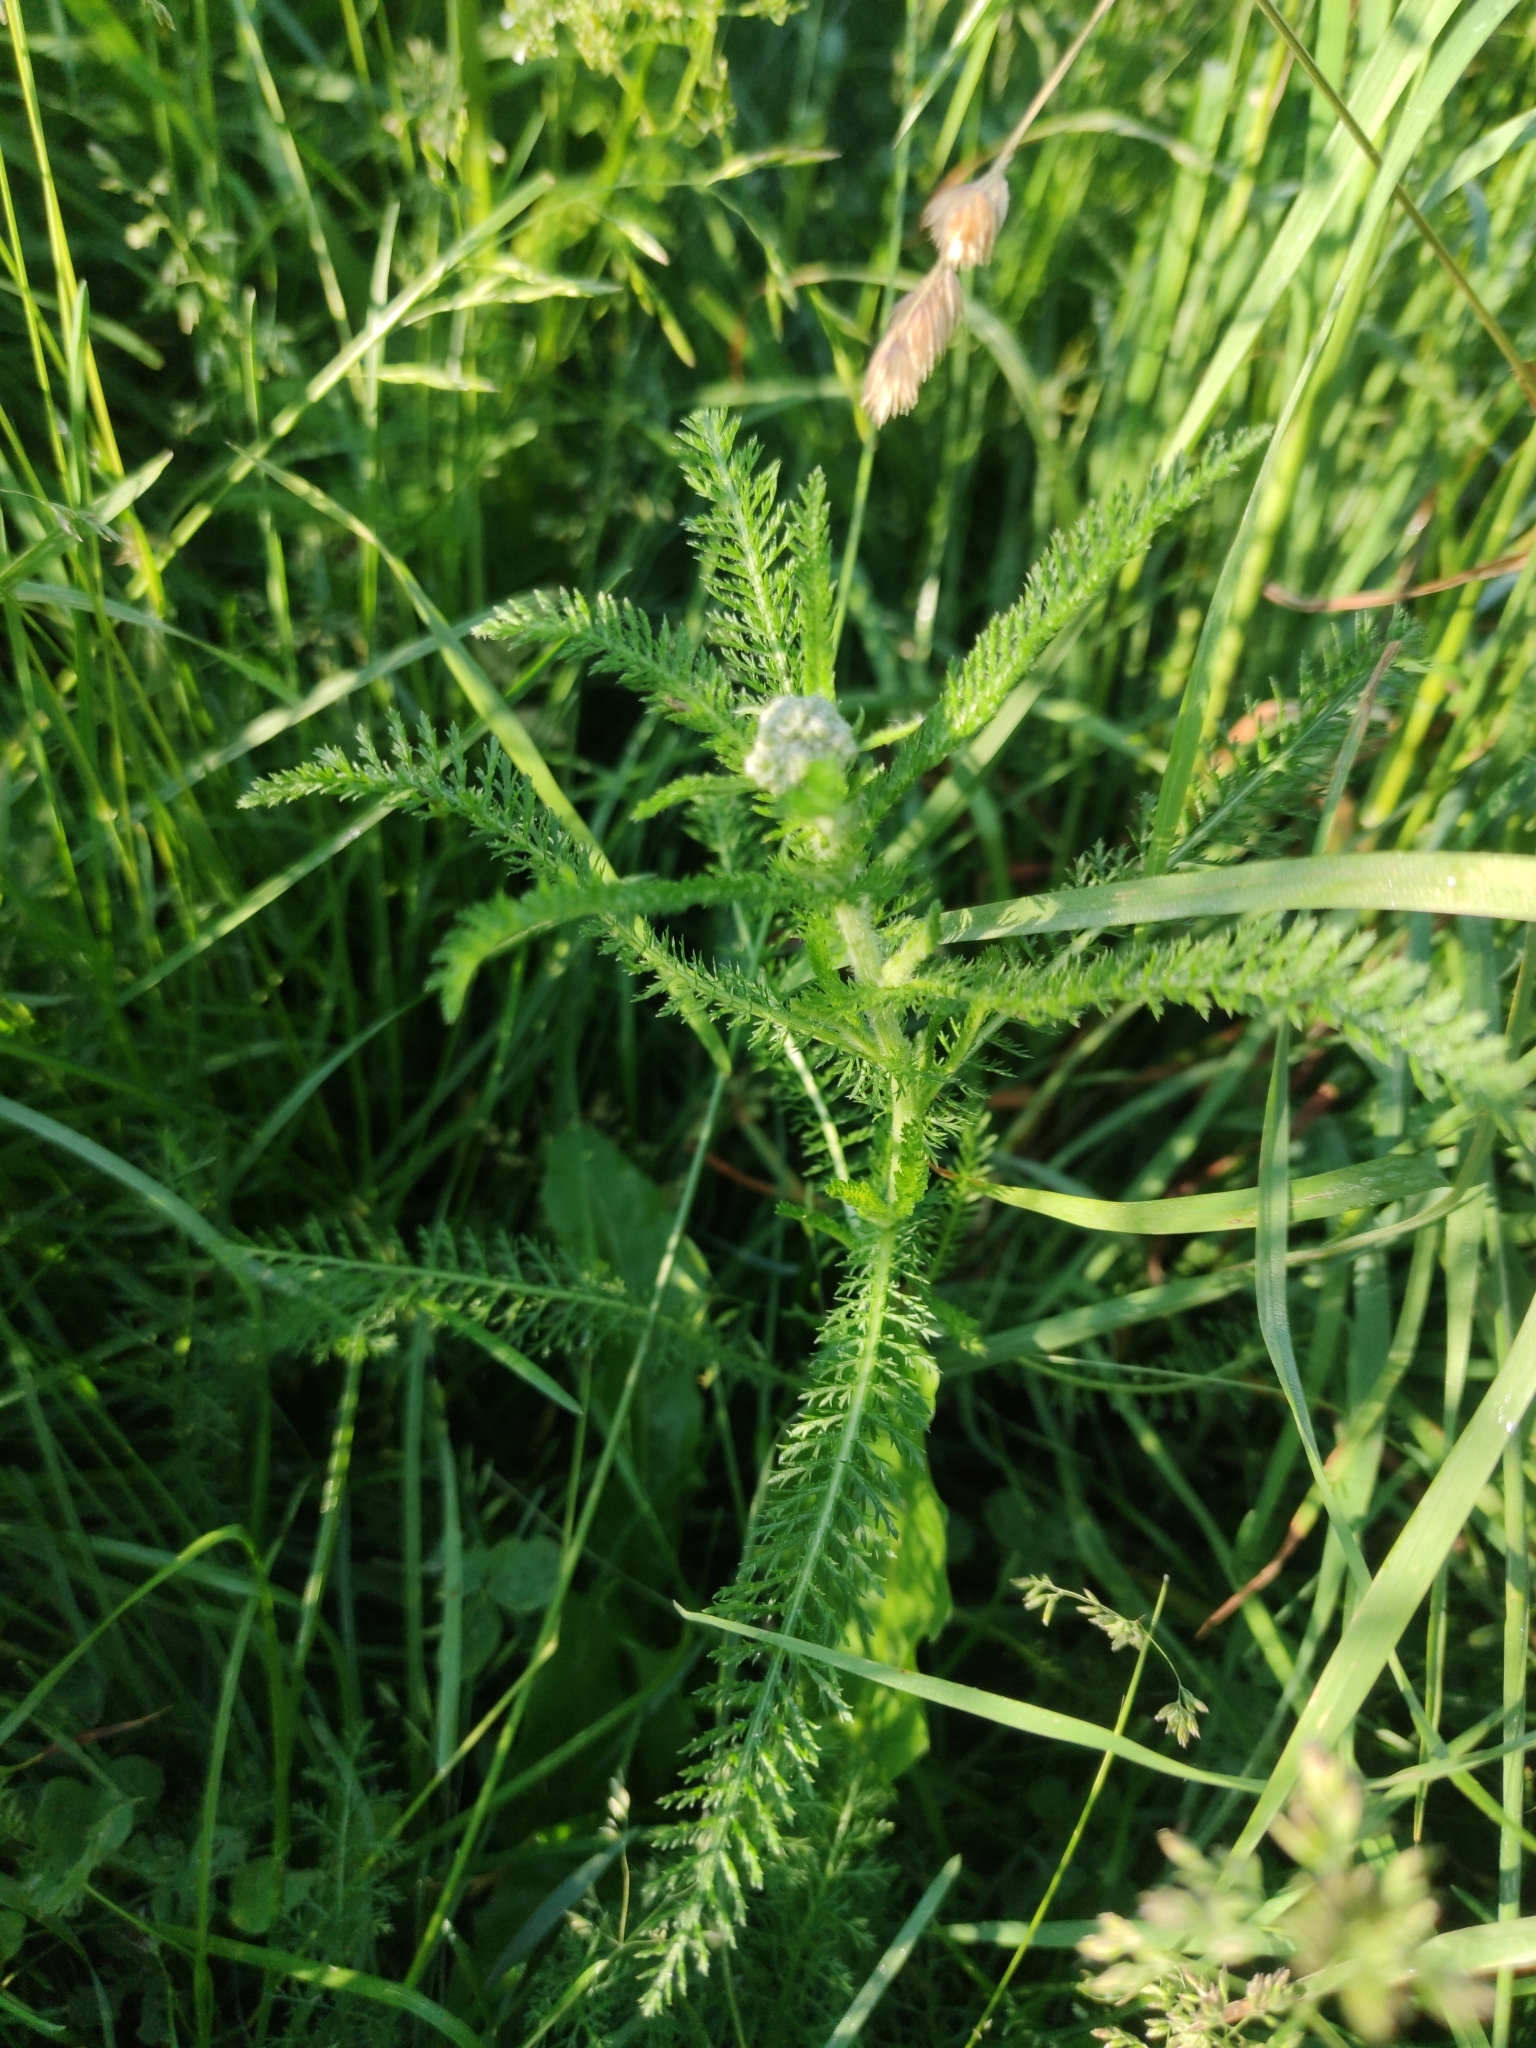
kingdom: Plantae
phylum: Tracheophyta
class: Magnoliopsida
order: Asterales
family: Asteraceae
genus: Achillea
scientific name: Achillea millefolium
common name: Yarrow
